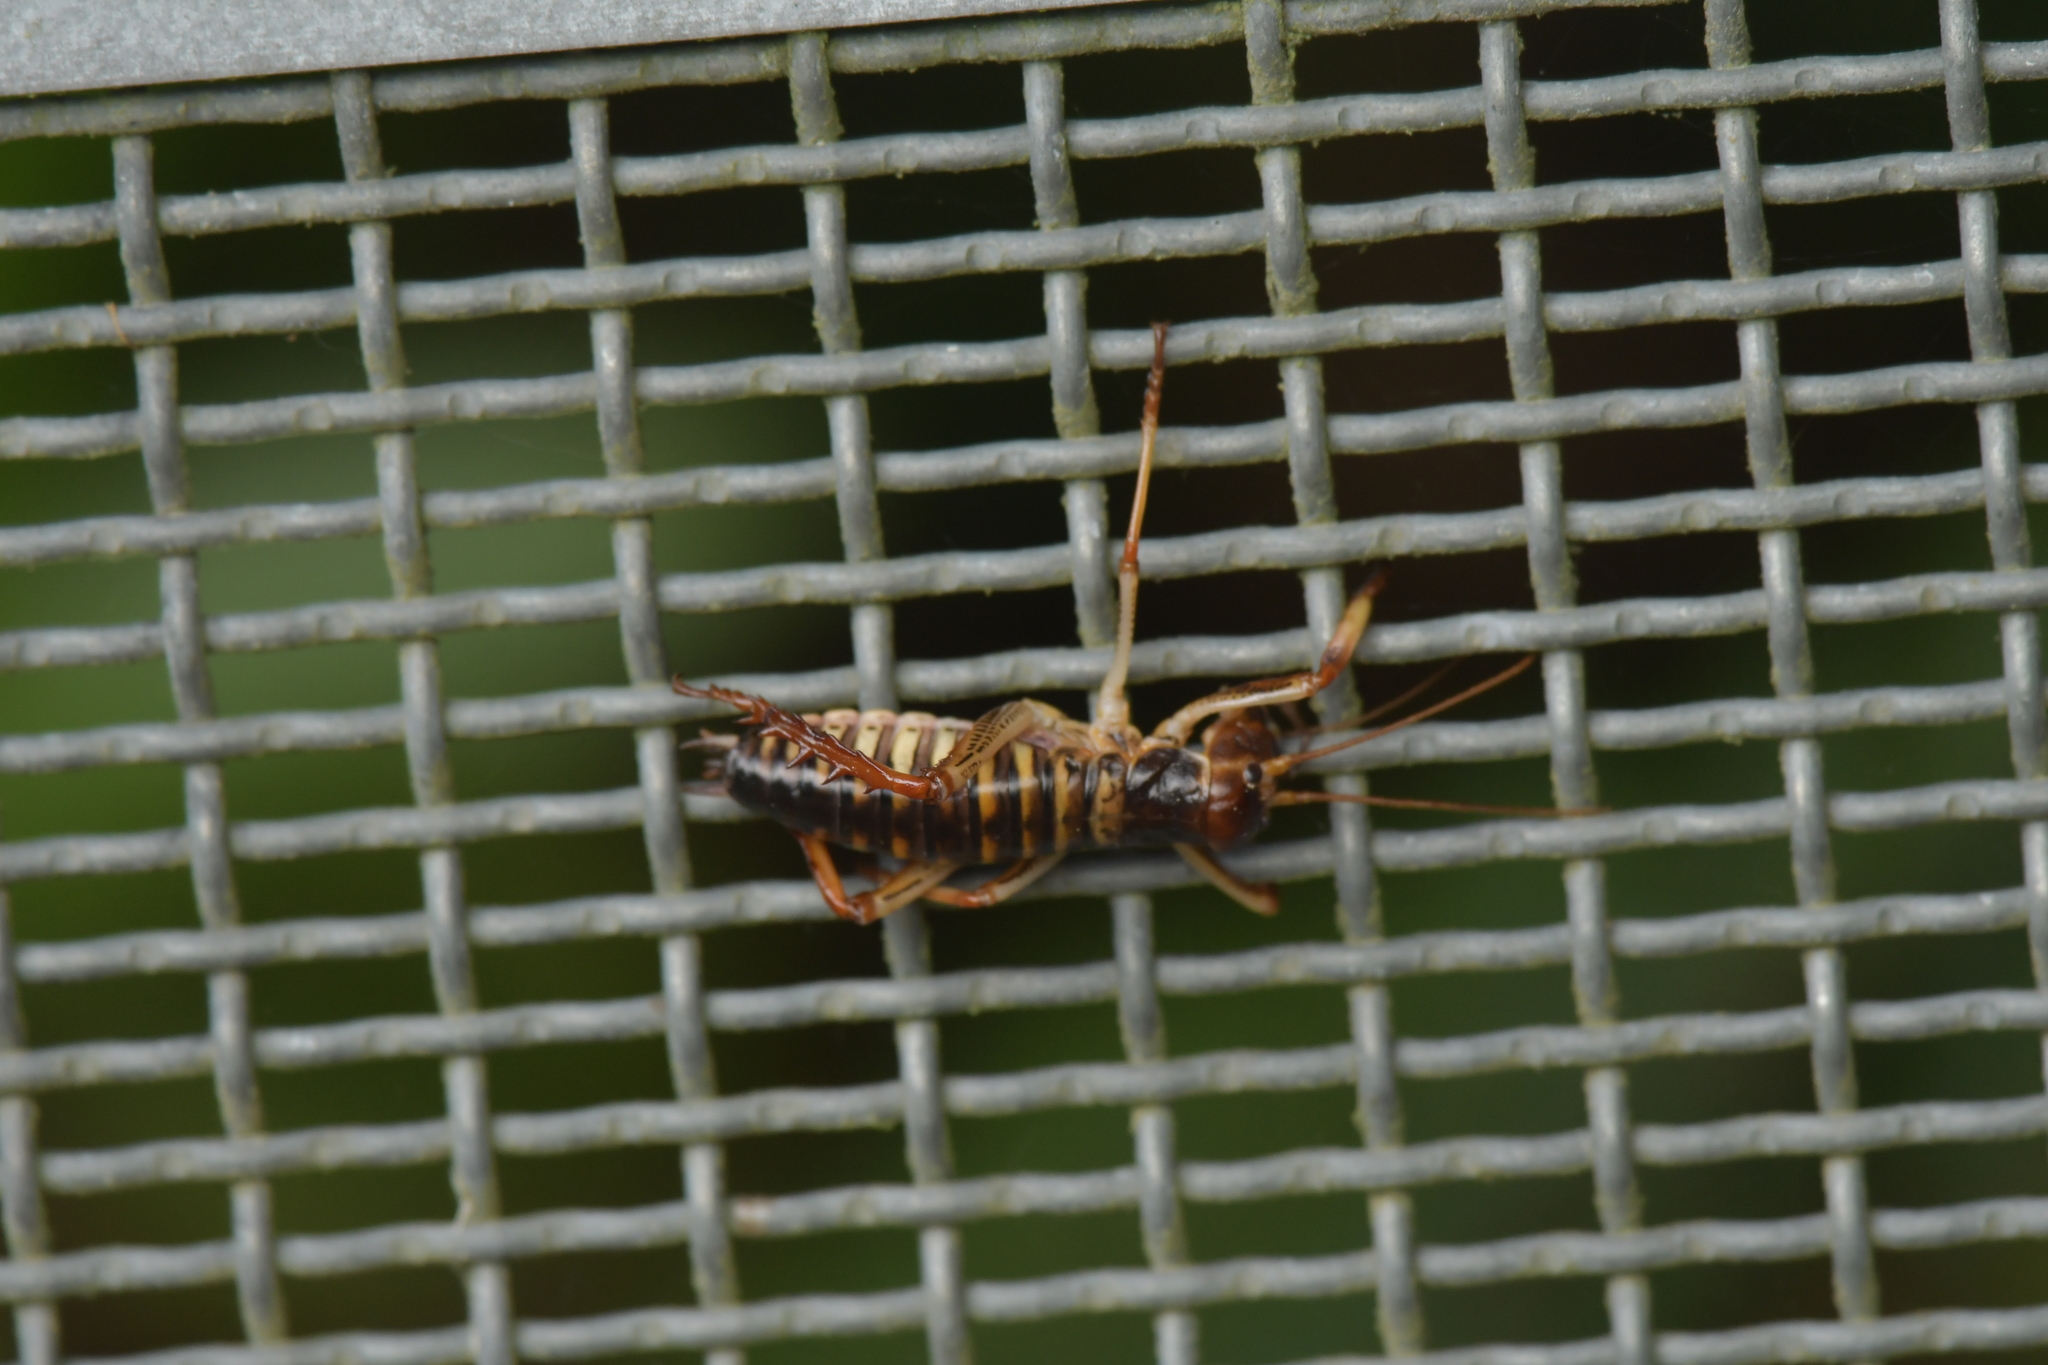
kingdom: Animalia
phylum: Arthropoda
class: Insecta
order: Orthoptera
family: Anostostomatidae
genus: Hemideina
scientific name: Hemideina crassidens
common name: Wellington tree weta
